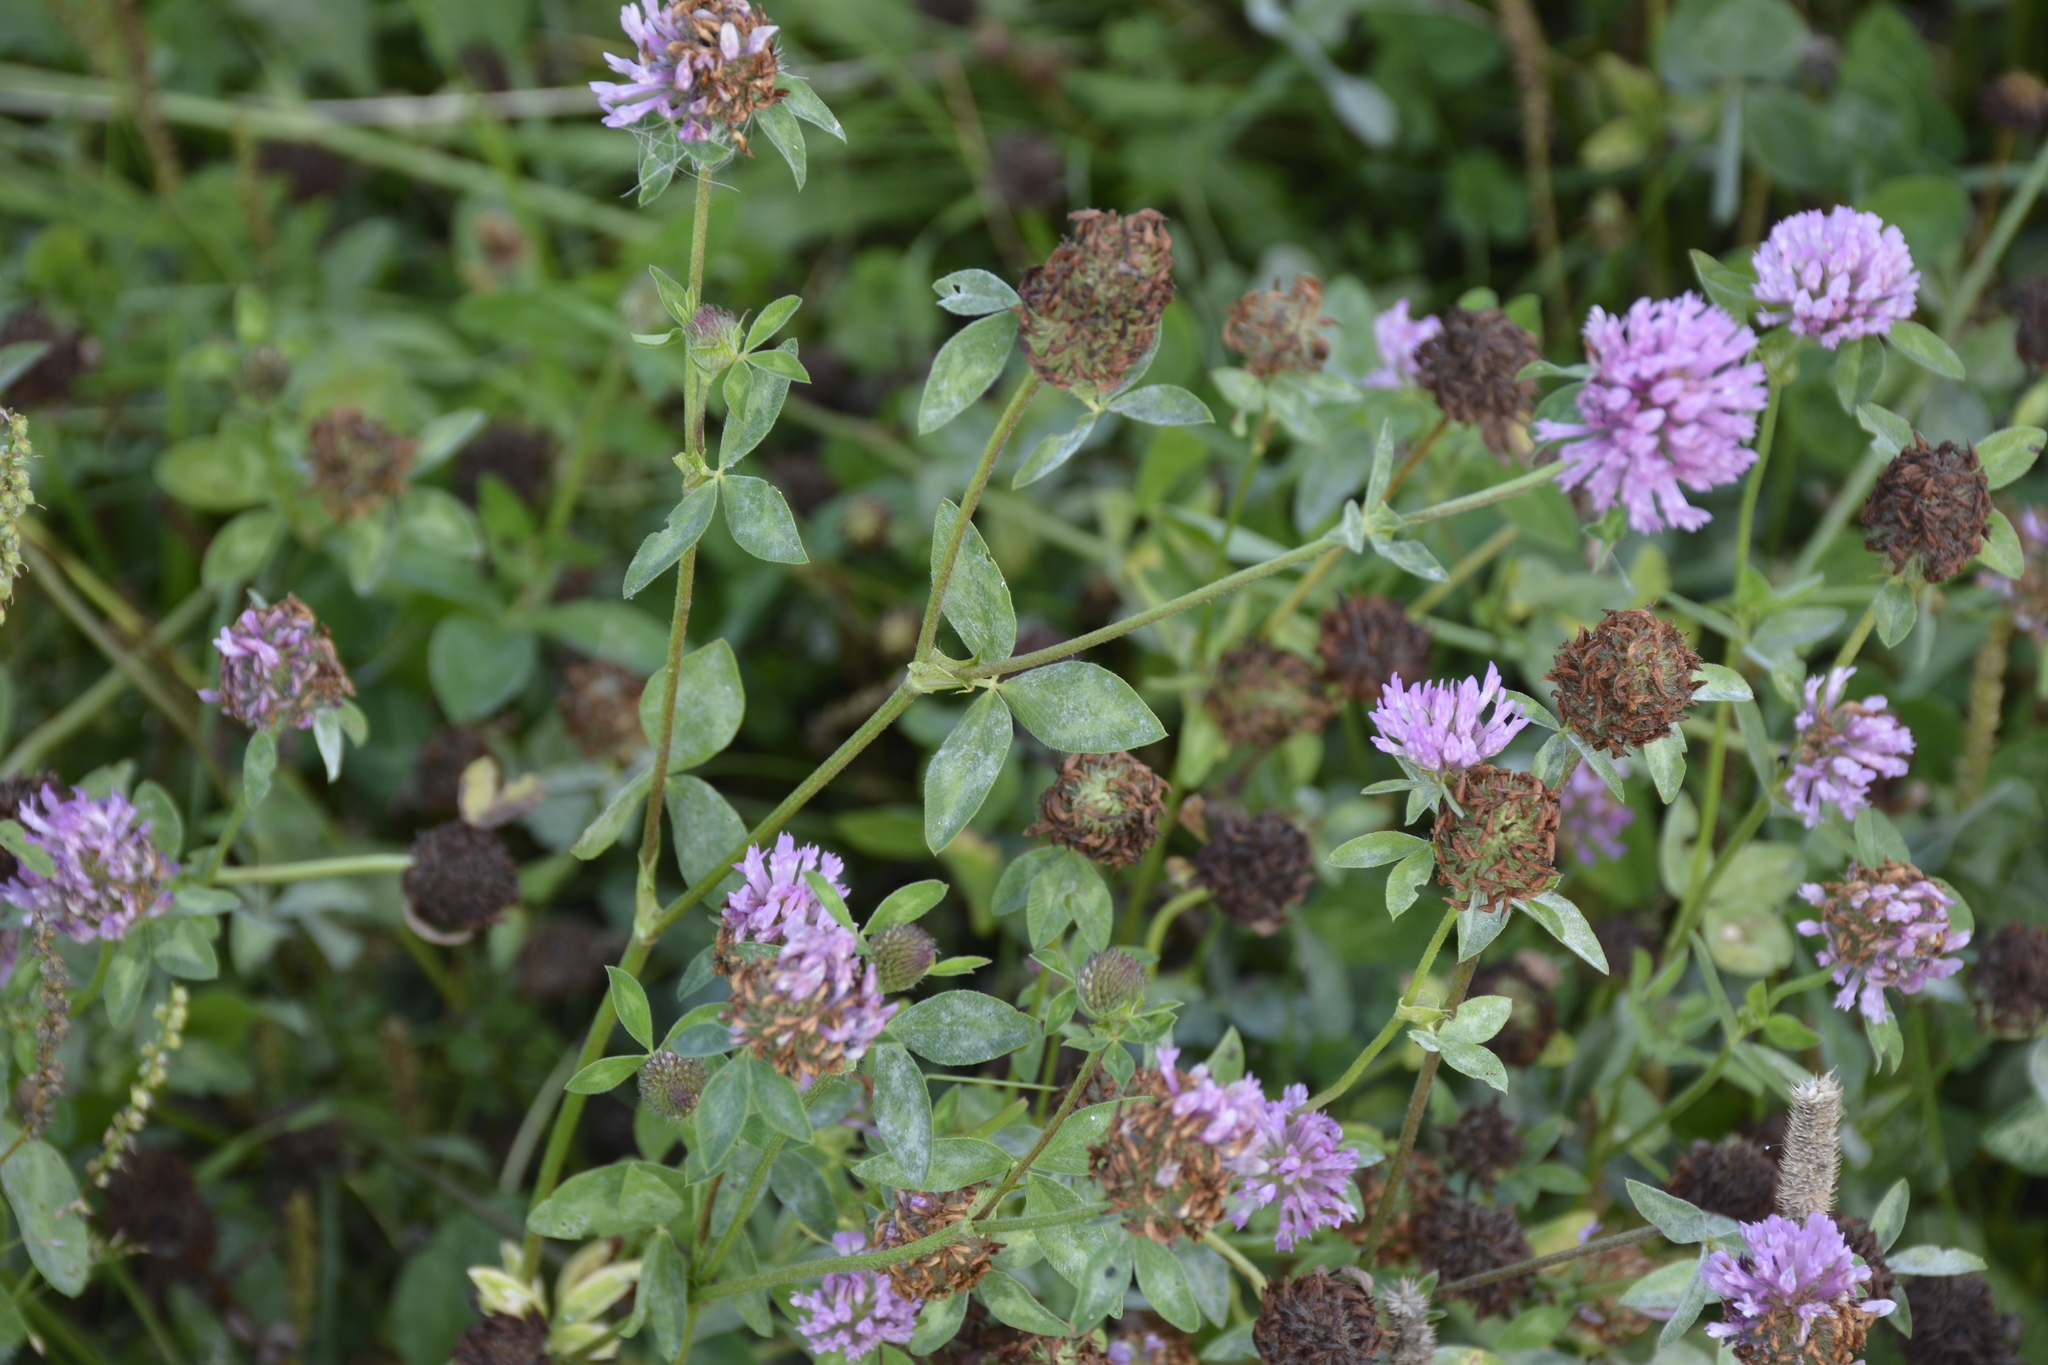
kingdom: Plantae
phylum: Tracheophyta
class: Magnoliopsida
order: Fabales
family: Fabaceae
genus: Trifolium
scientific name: Trifolium pratense
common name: Red clover
